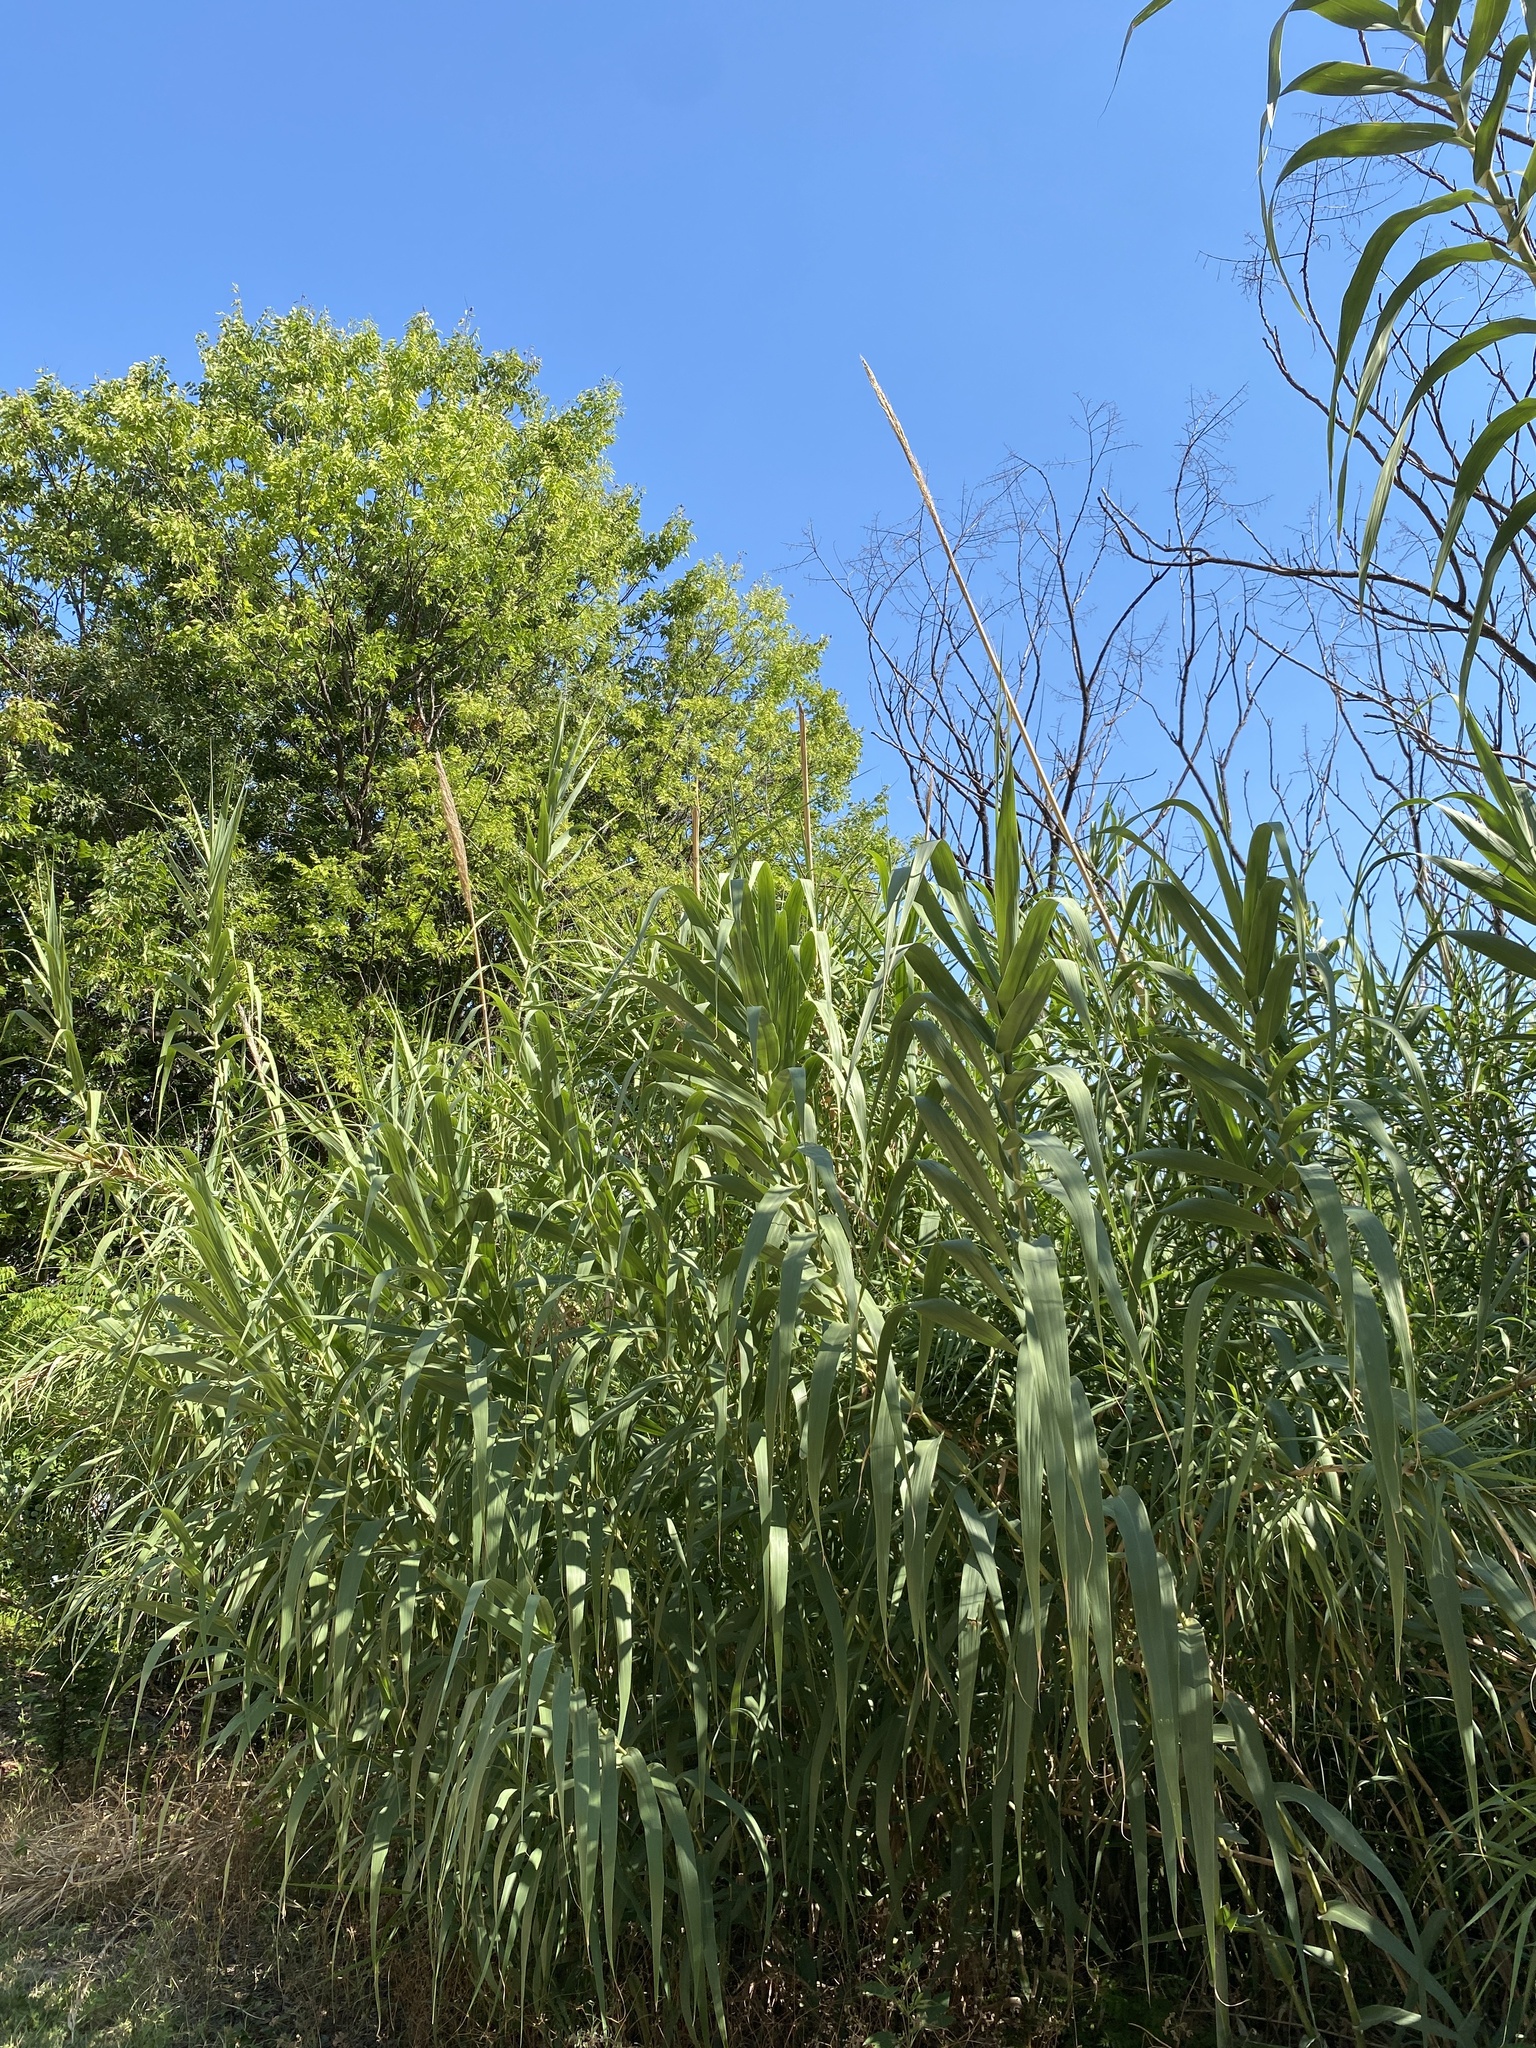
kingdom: Plantae
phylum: Tracheophyta
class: Liliopsida
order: Poales
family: Poaceae
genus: Arundo
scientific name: Arundo donax
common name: Giant reed
